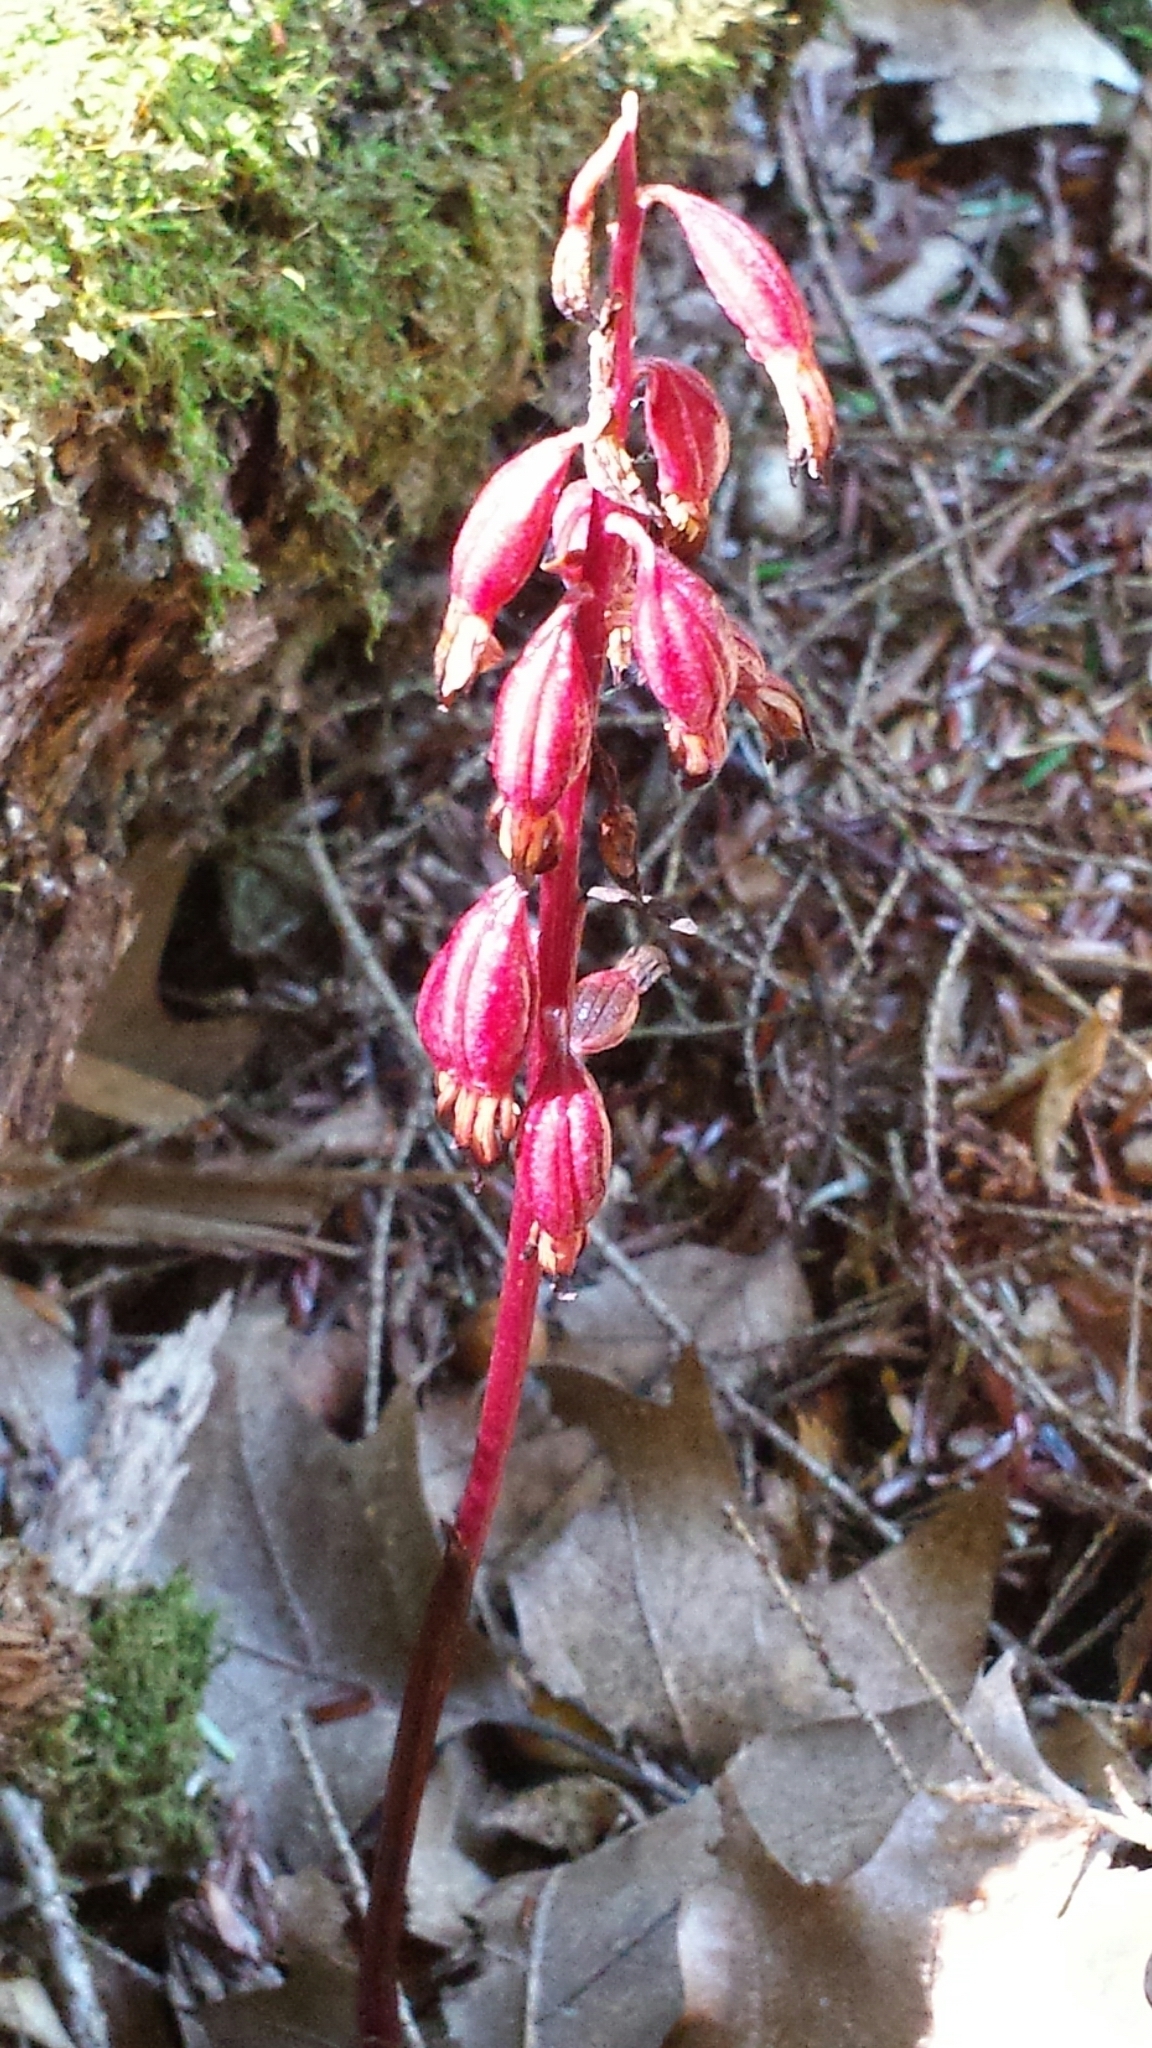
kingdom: Plantae
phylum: Tracheophyta
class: Liliopsida
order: Asparagales
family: Orchidaceae
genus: Corallorhiza
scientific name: Corallorhiza maculata
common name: Spotted coralroot
